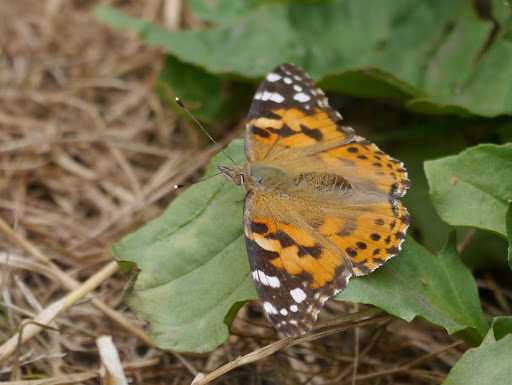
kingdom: Animalia
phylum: Arthropoda
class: Insecta
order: Lepidoptera
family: Nymphalidae
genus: Vanessa
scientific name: Vanessa cardui
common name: Painted lady
